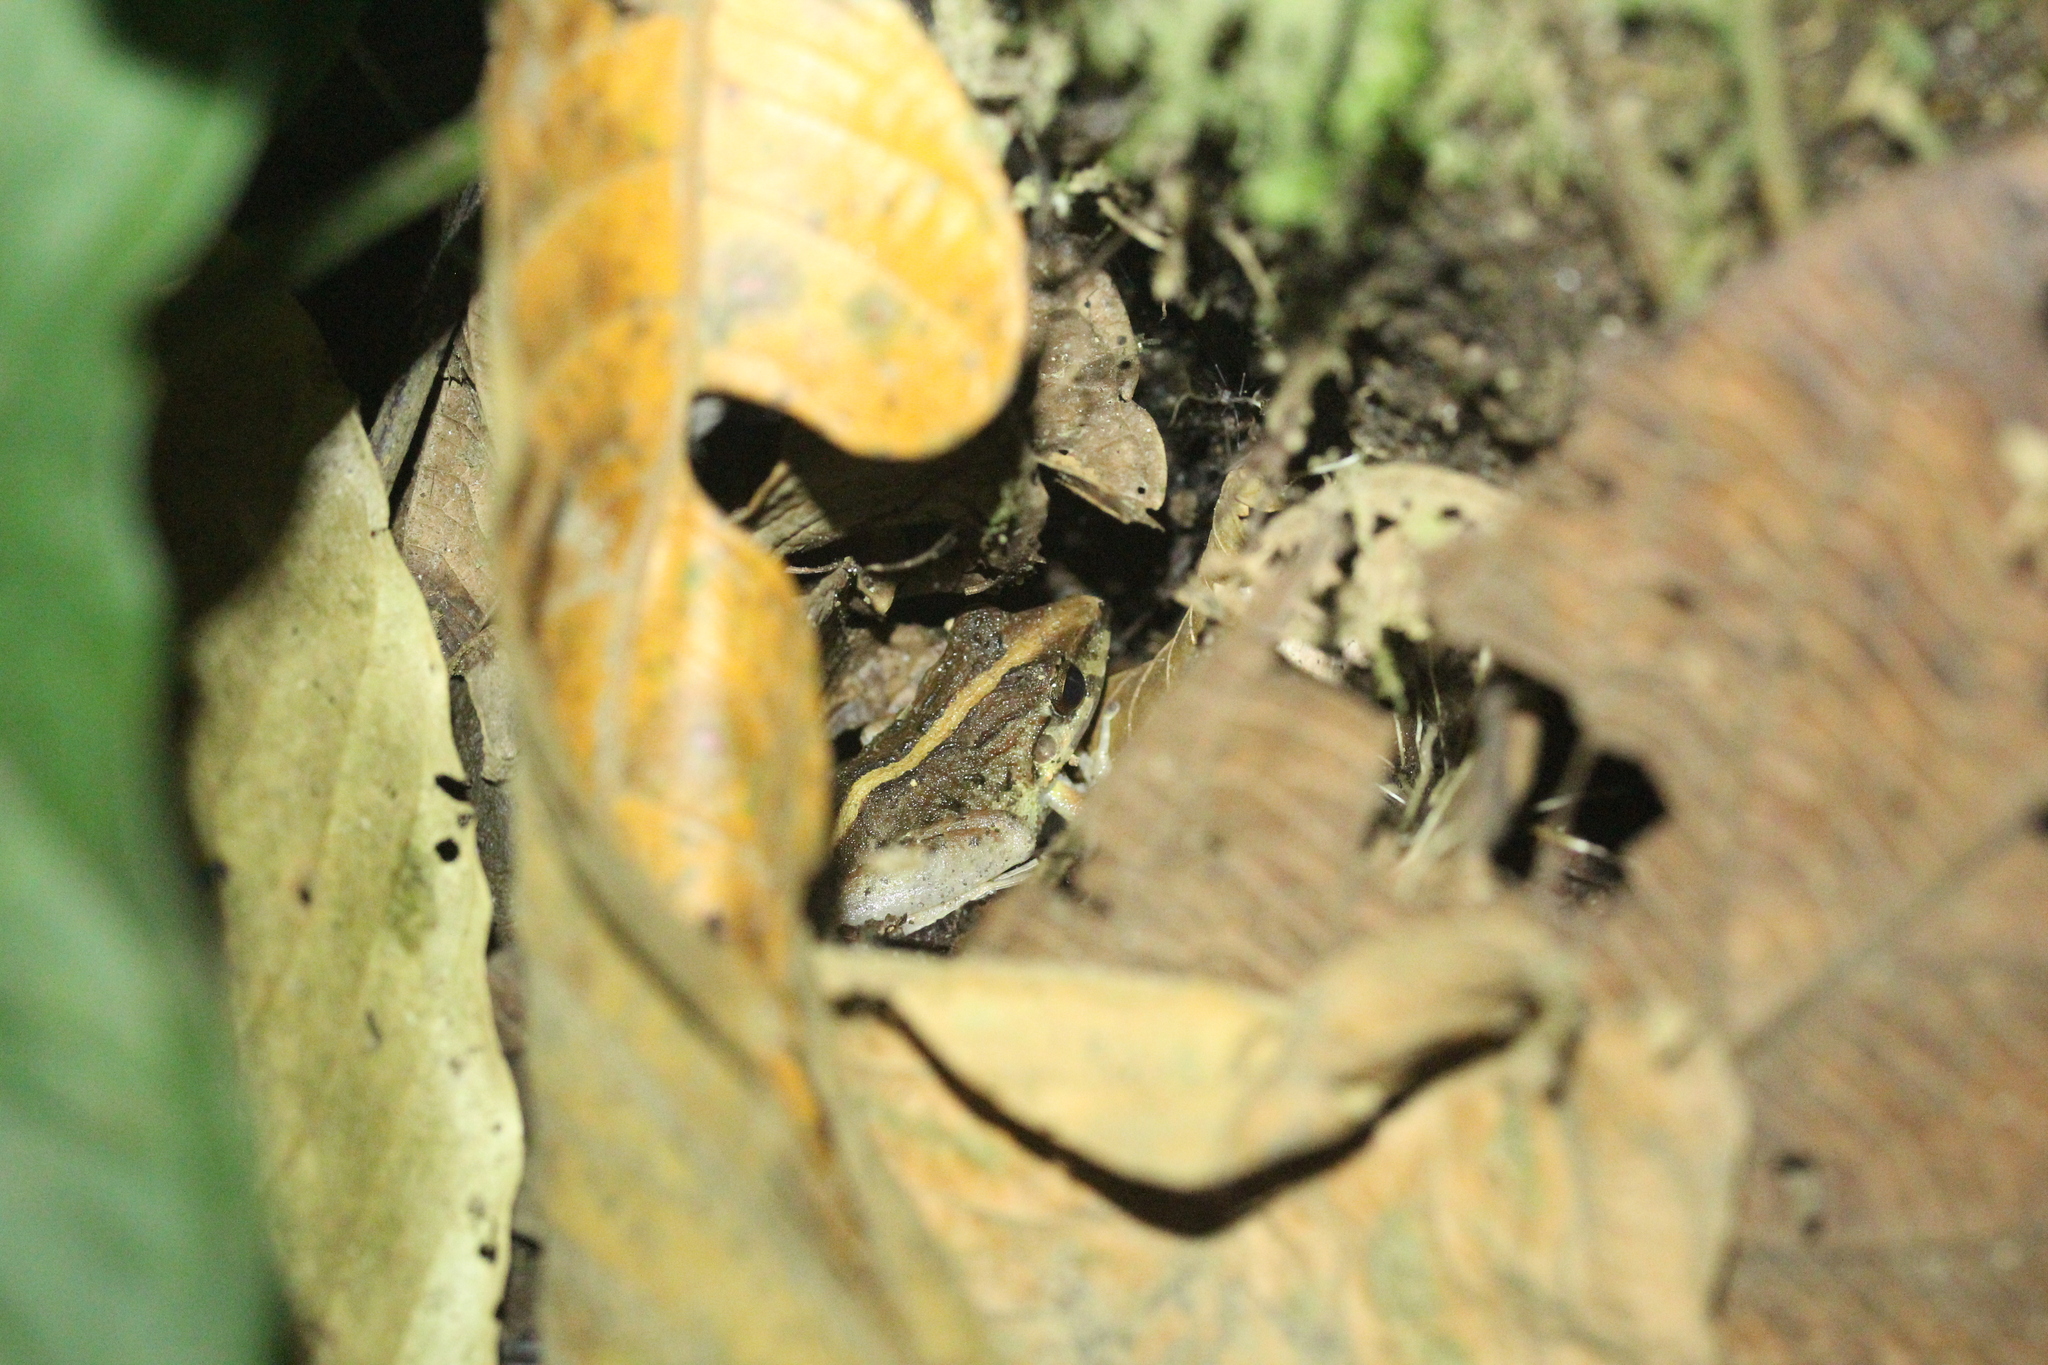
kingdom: Animalia
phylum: Chordata
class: Amphibia
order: Anura
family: Craugastoridae
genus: Craugastor
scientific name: Craugastor fitzingeri
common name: Fitzinger's robber frog
